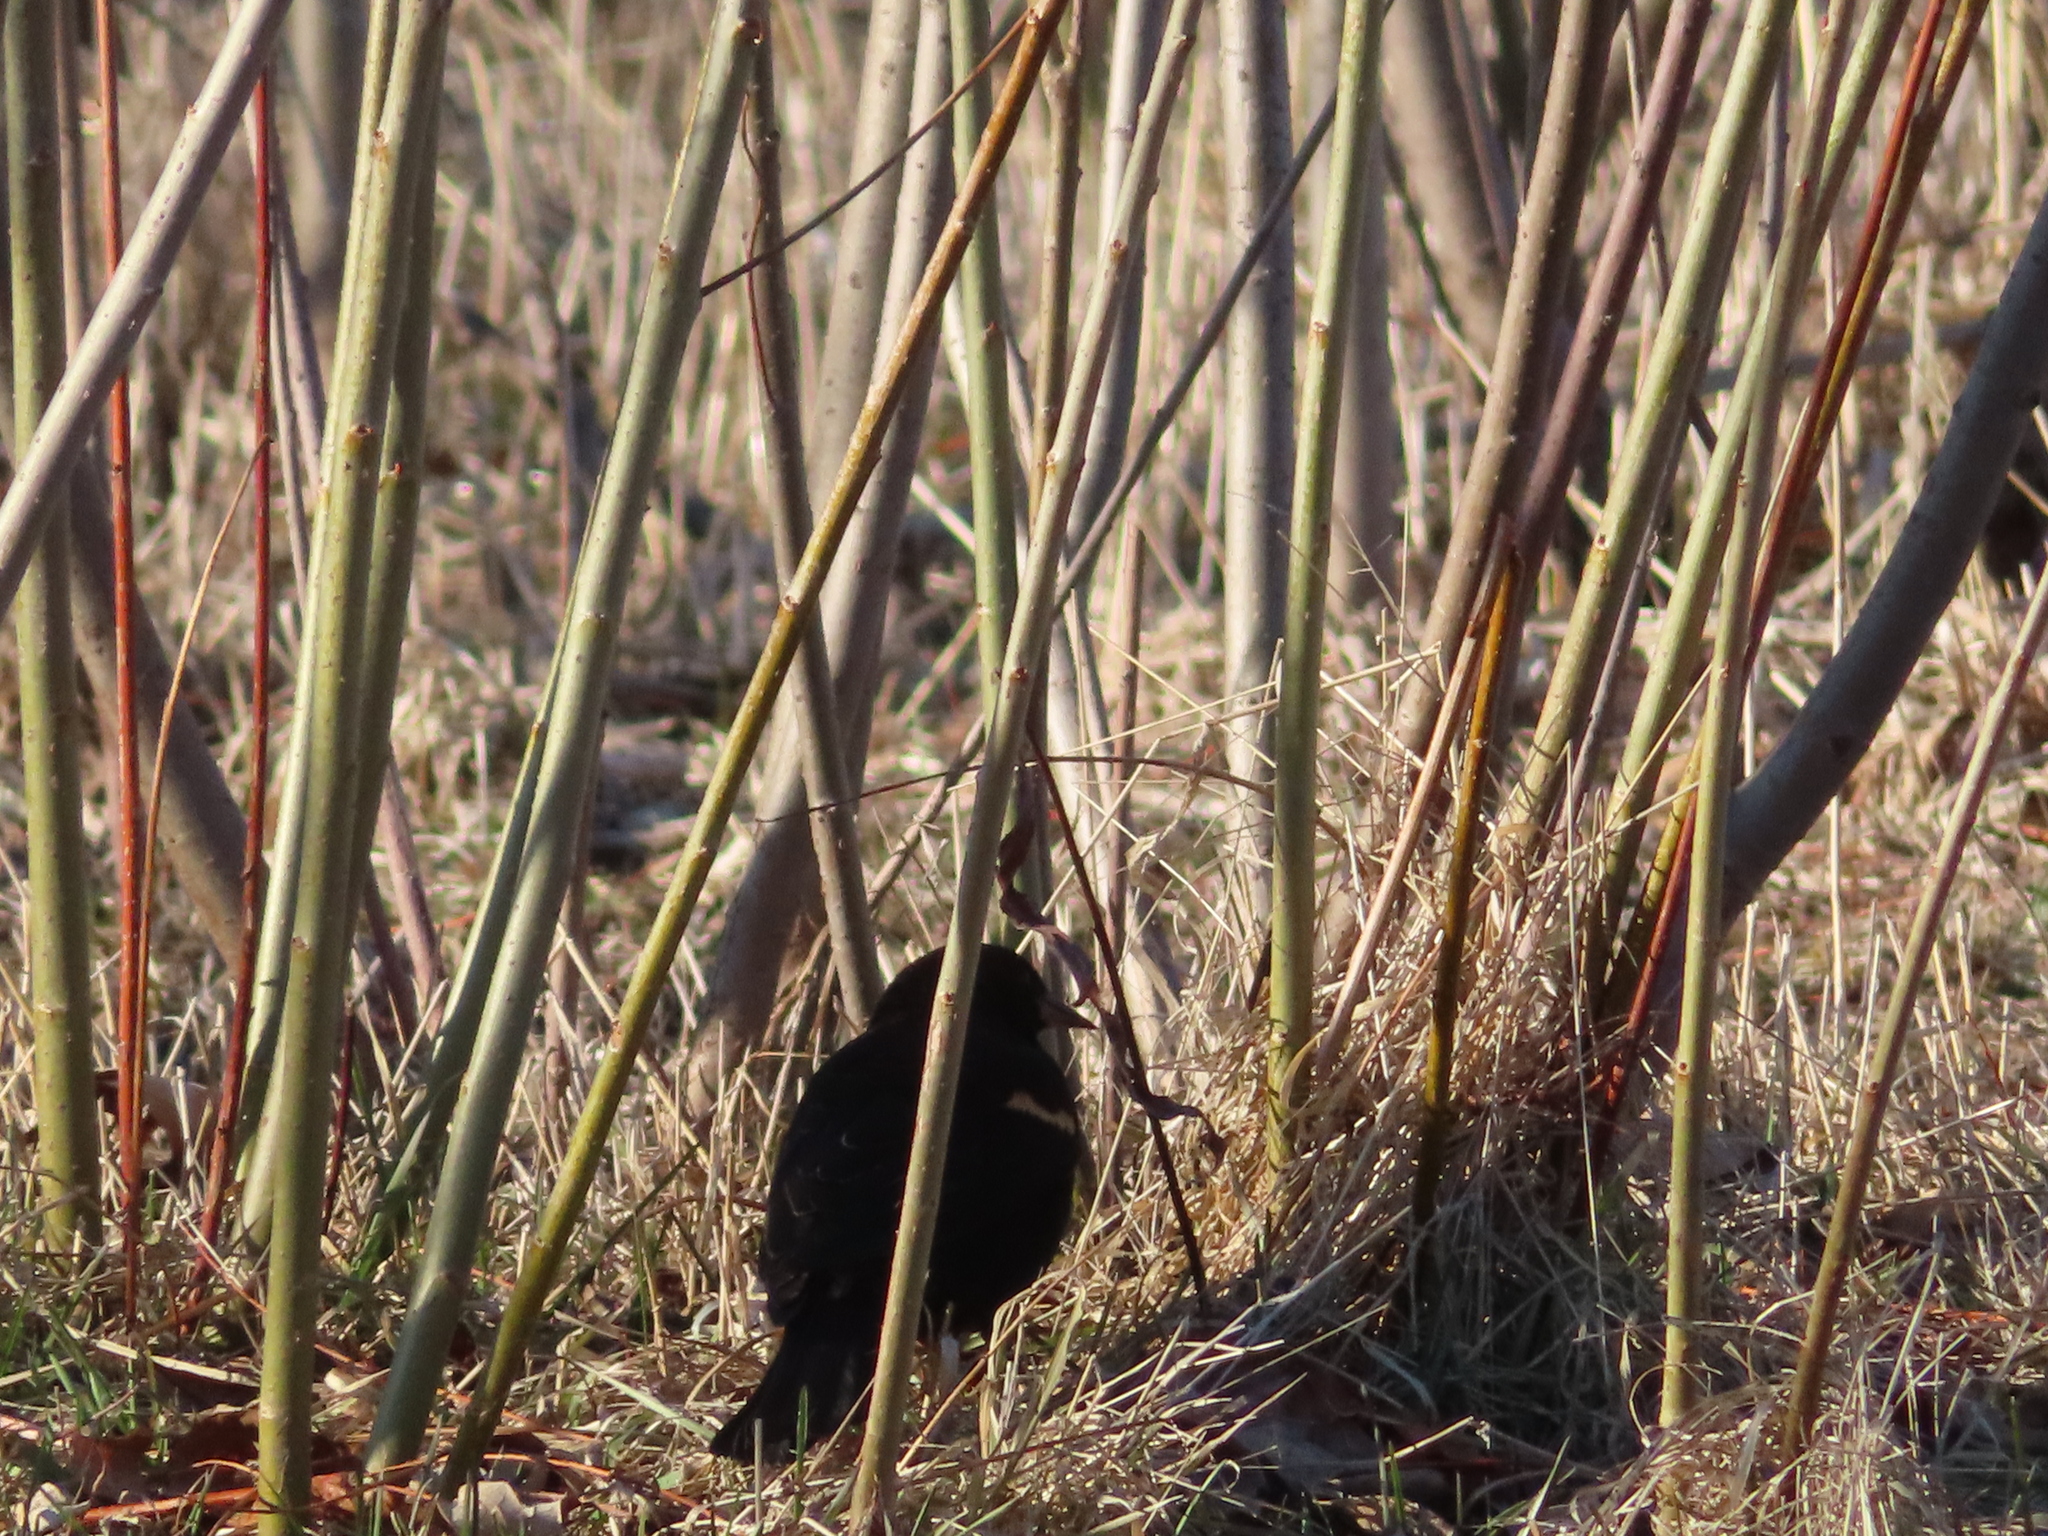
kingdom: Animalia
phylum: Chordata
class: Aves
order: Passeriformes
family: Icteridae
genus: Agelaius
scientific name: Agelaius phoeniceus
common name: Red-winged blackbird
